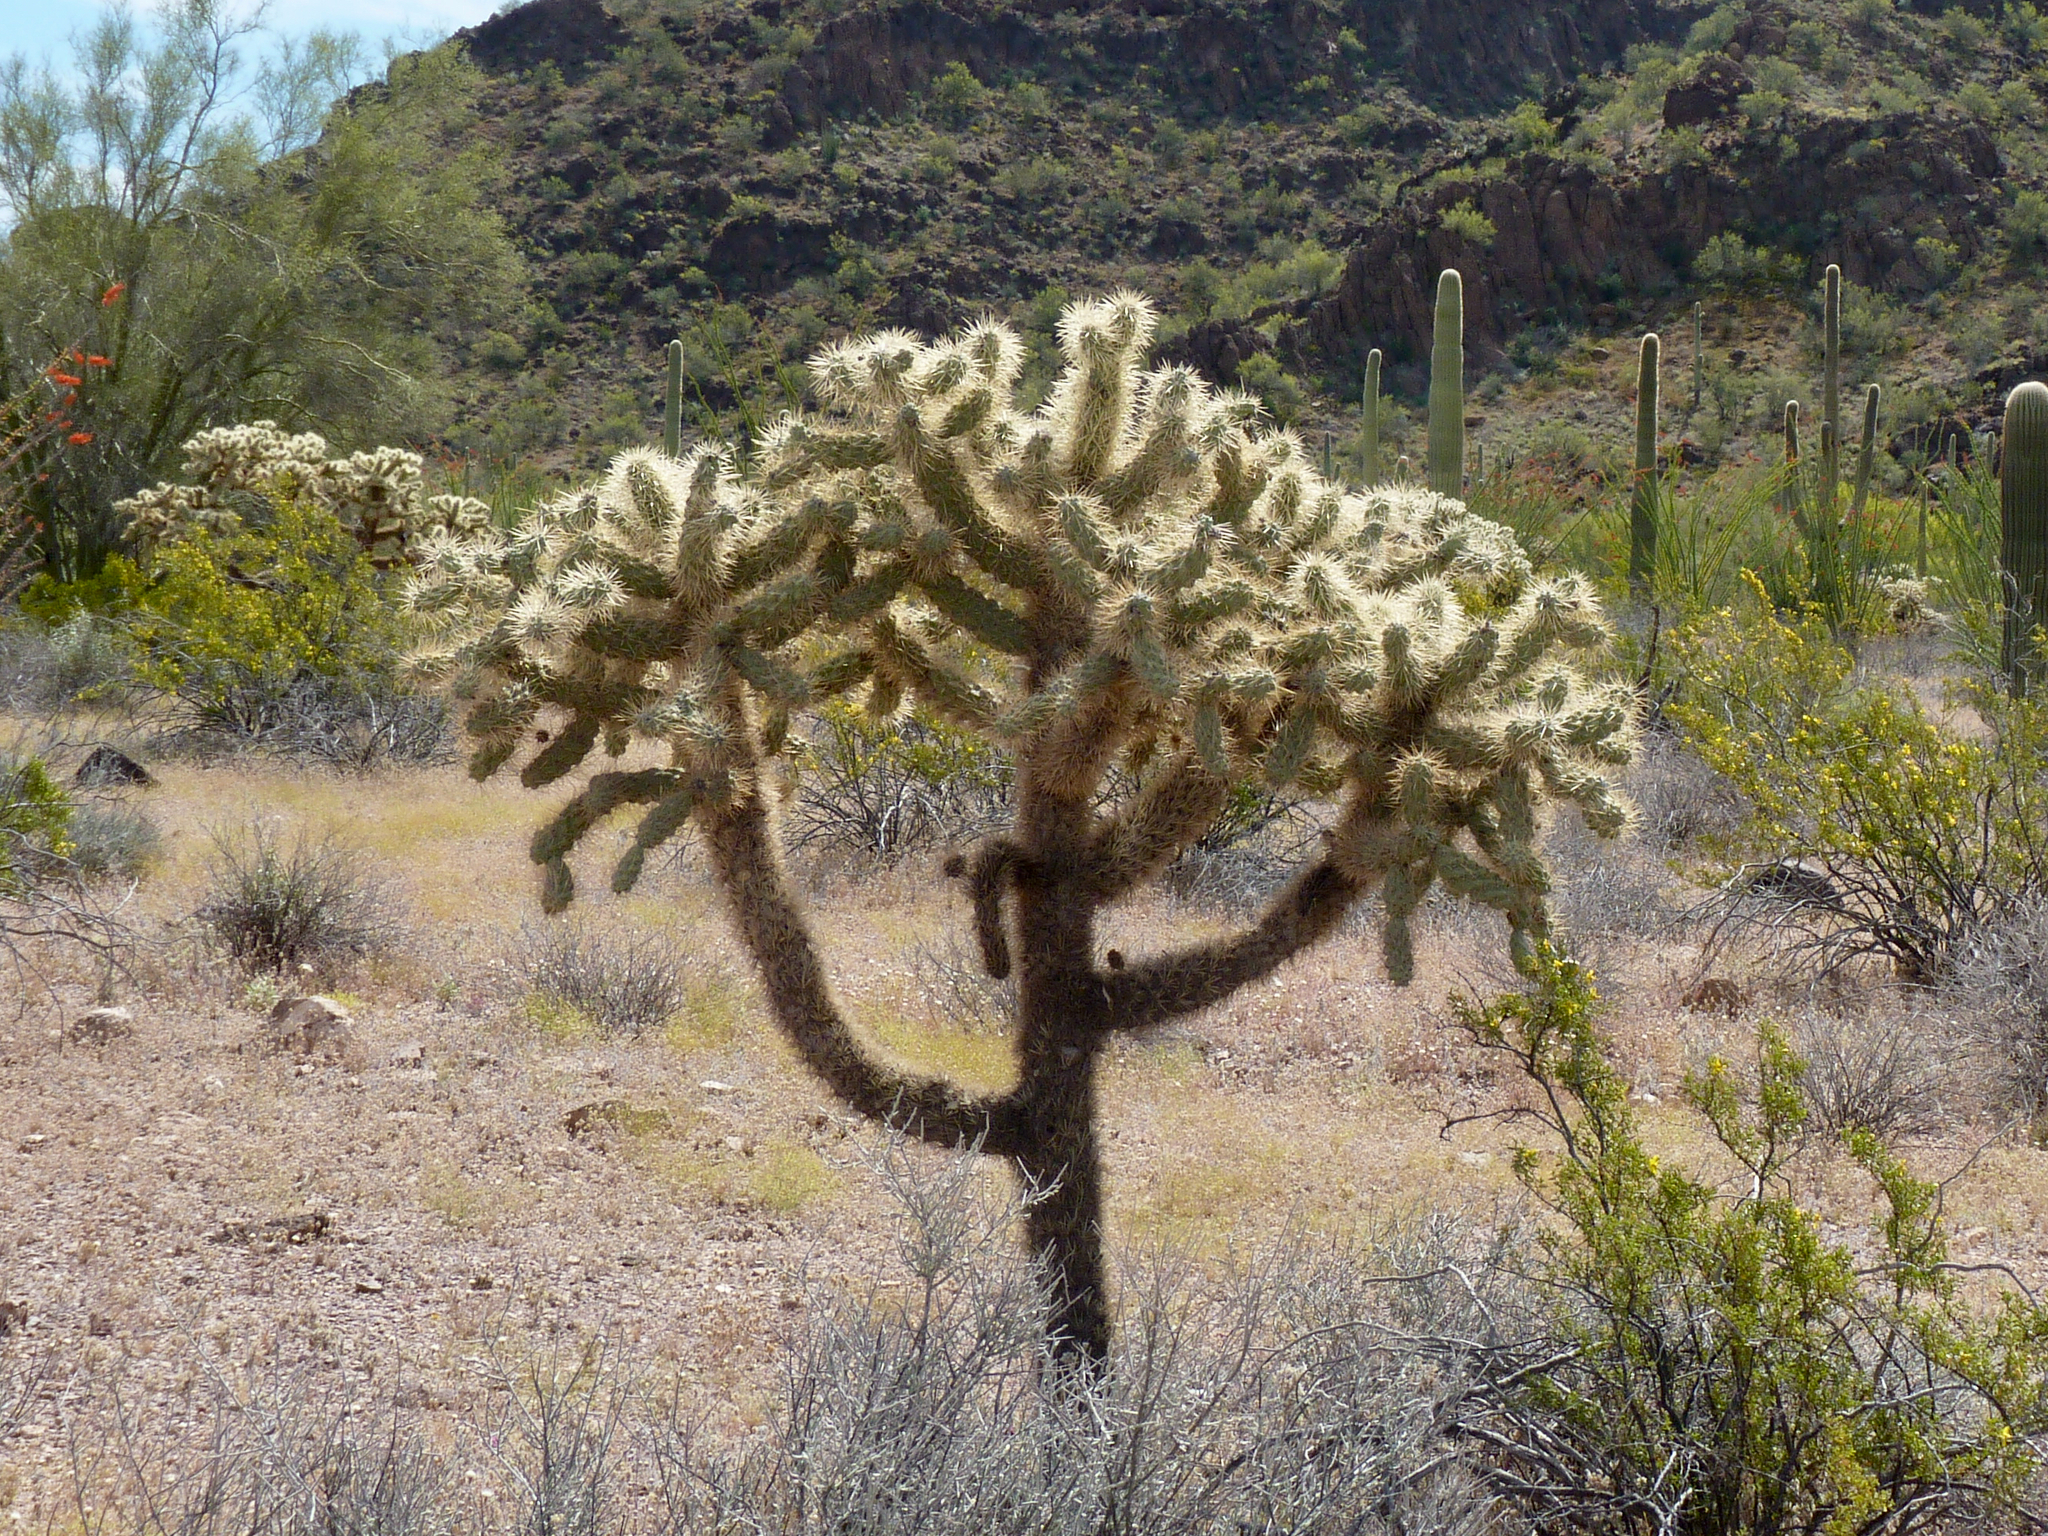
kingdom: Plantae
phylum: Tracheophyta
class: Magnoliopsida
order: Caryophyllales
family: Cactaceae
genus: Cylindropuntia
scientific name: Cylindropuntia fulgida
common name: Jumping cholla
